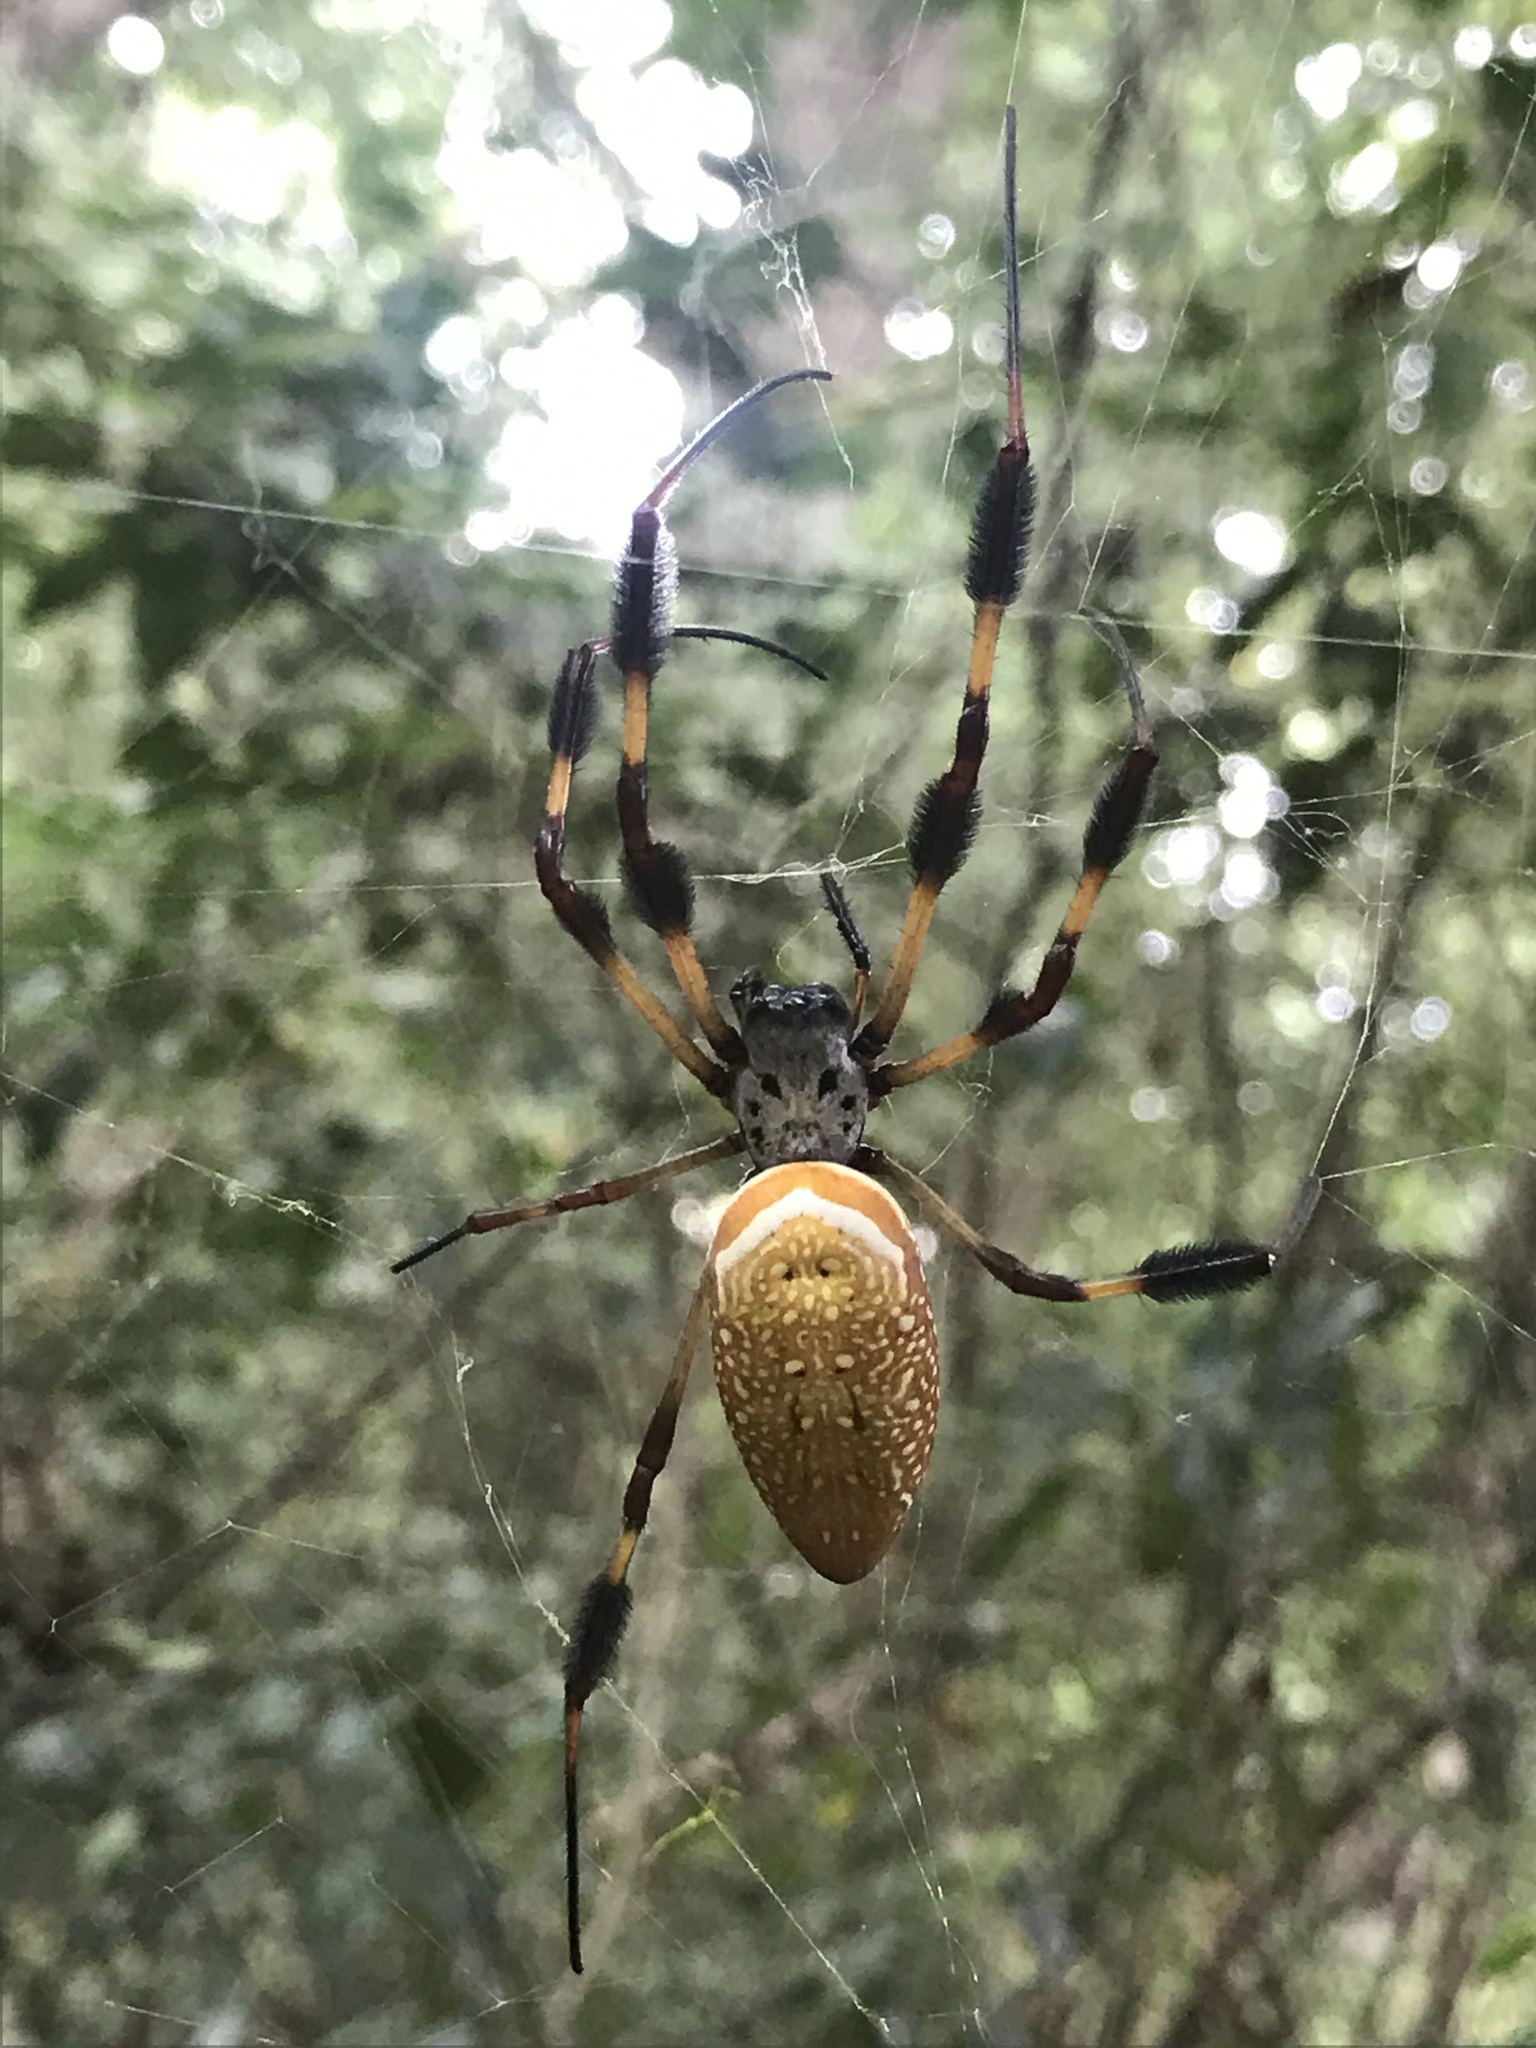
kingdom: Animalia
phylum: Arthropoda
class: Arachnida
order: Araneae
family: Araneidae
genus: Trichonephila
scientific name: Trichonephila clavipes
